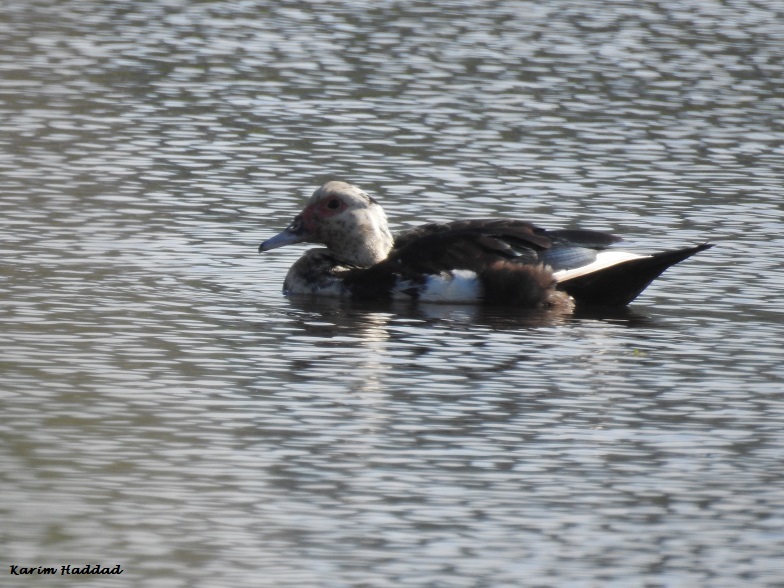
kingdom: Animalia
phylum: Chordata
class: Aves
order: Anseriformes
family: Anatidae
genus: Cairina
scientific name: Cairina moschata
